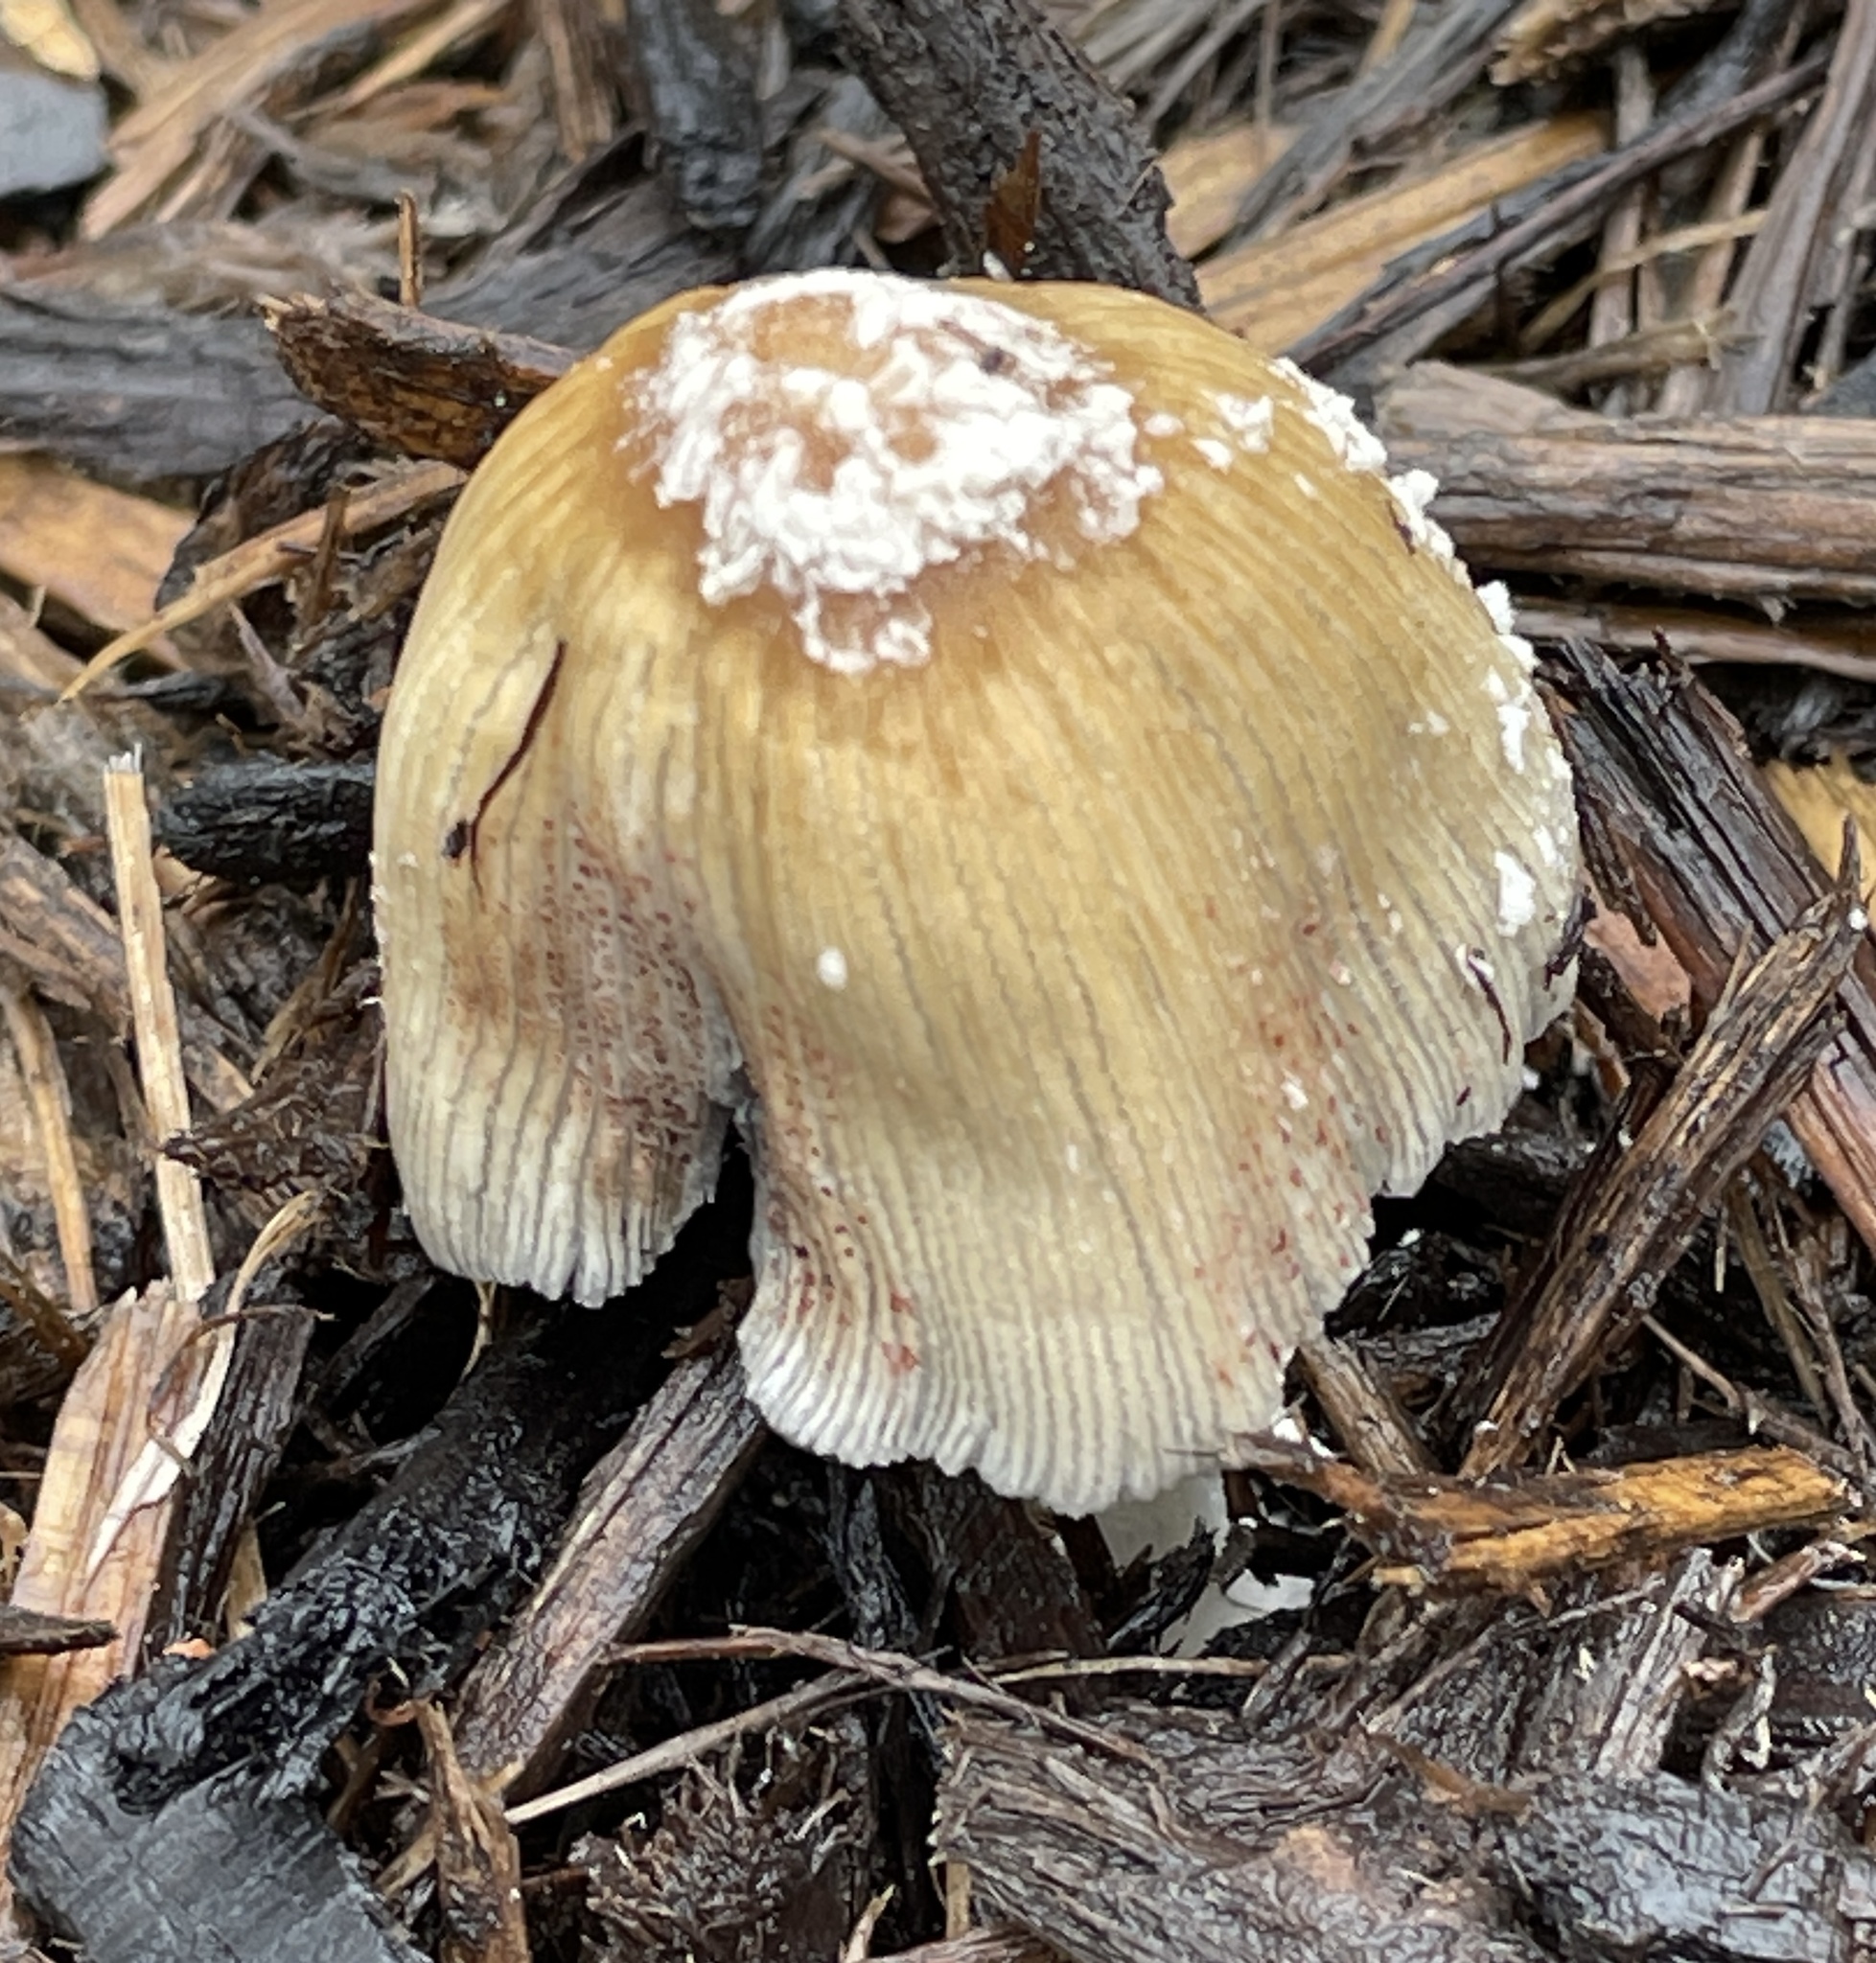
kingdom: Fungi
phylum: Basidiomycota
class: Agaricomycetes
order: Agaricales
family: Psathyrellaceae
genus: Coprinellus
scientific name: Coprinellus flocculosus
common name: Flocculose inkcap
